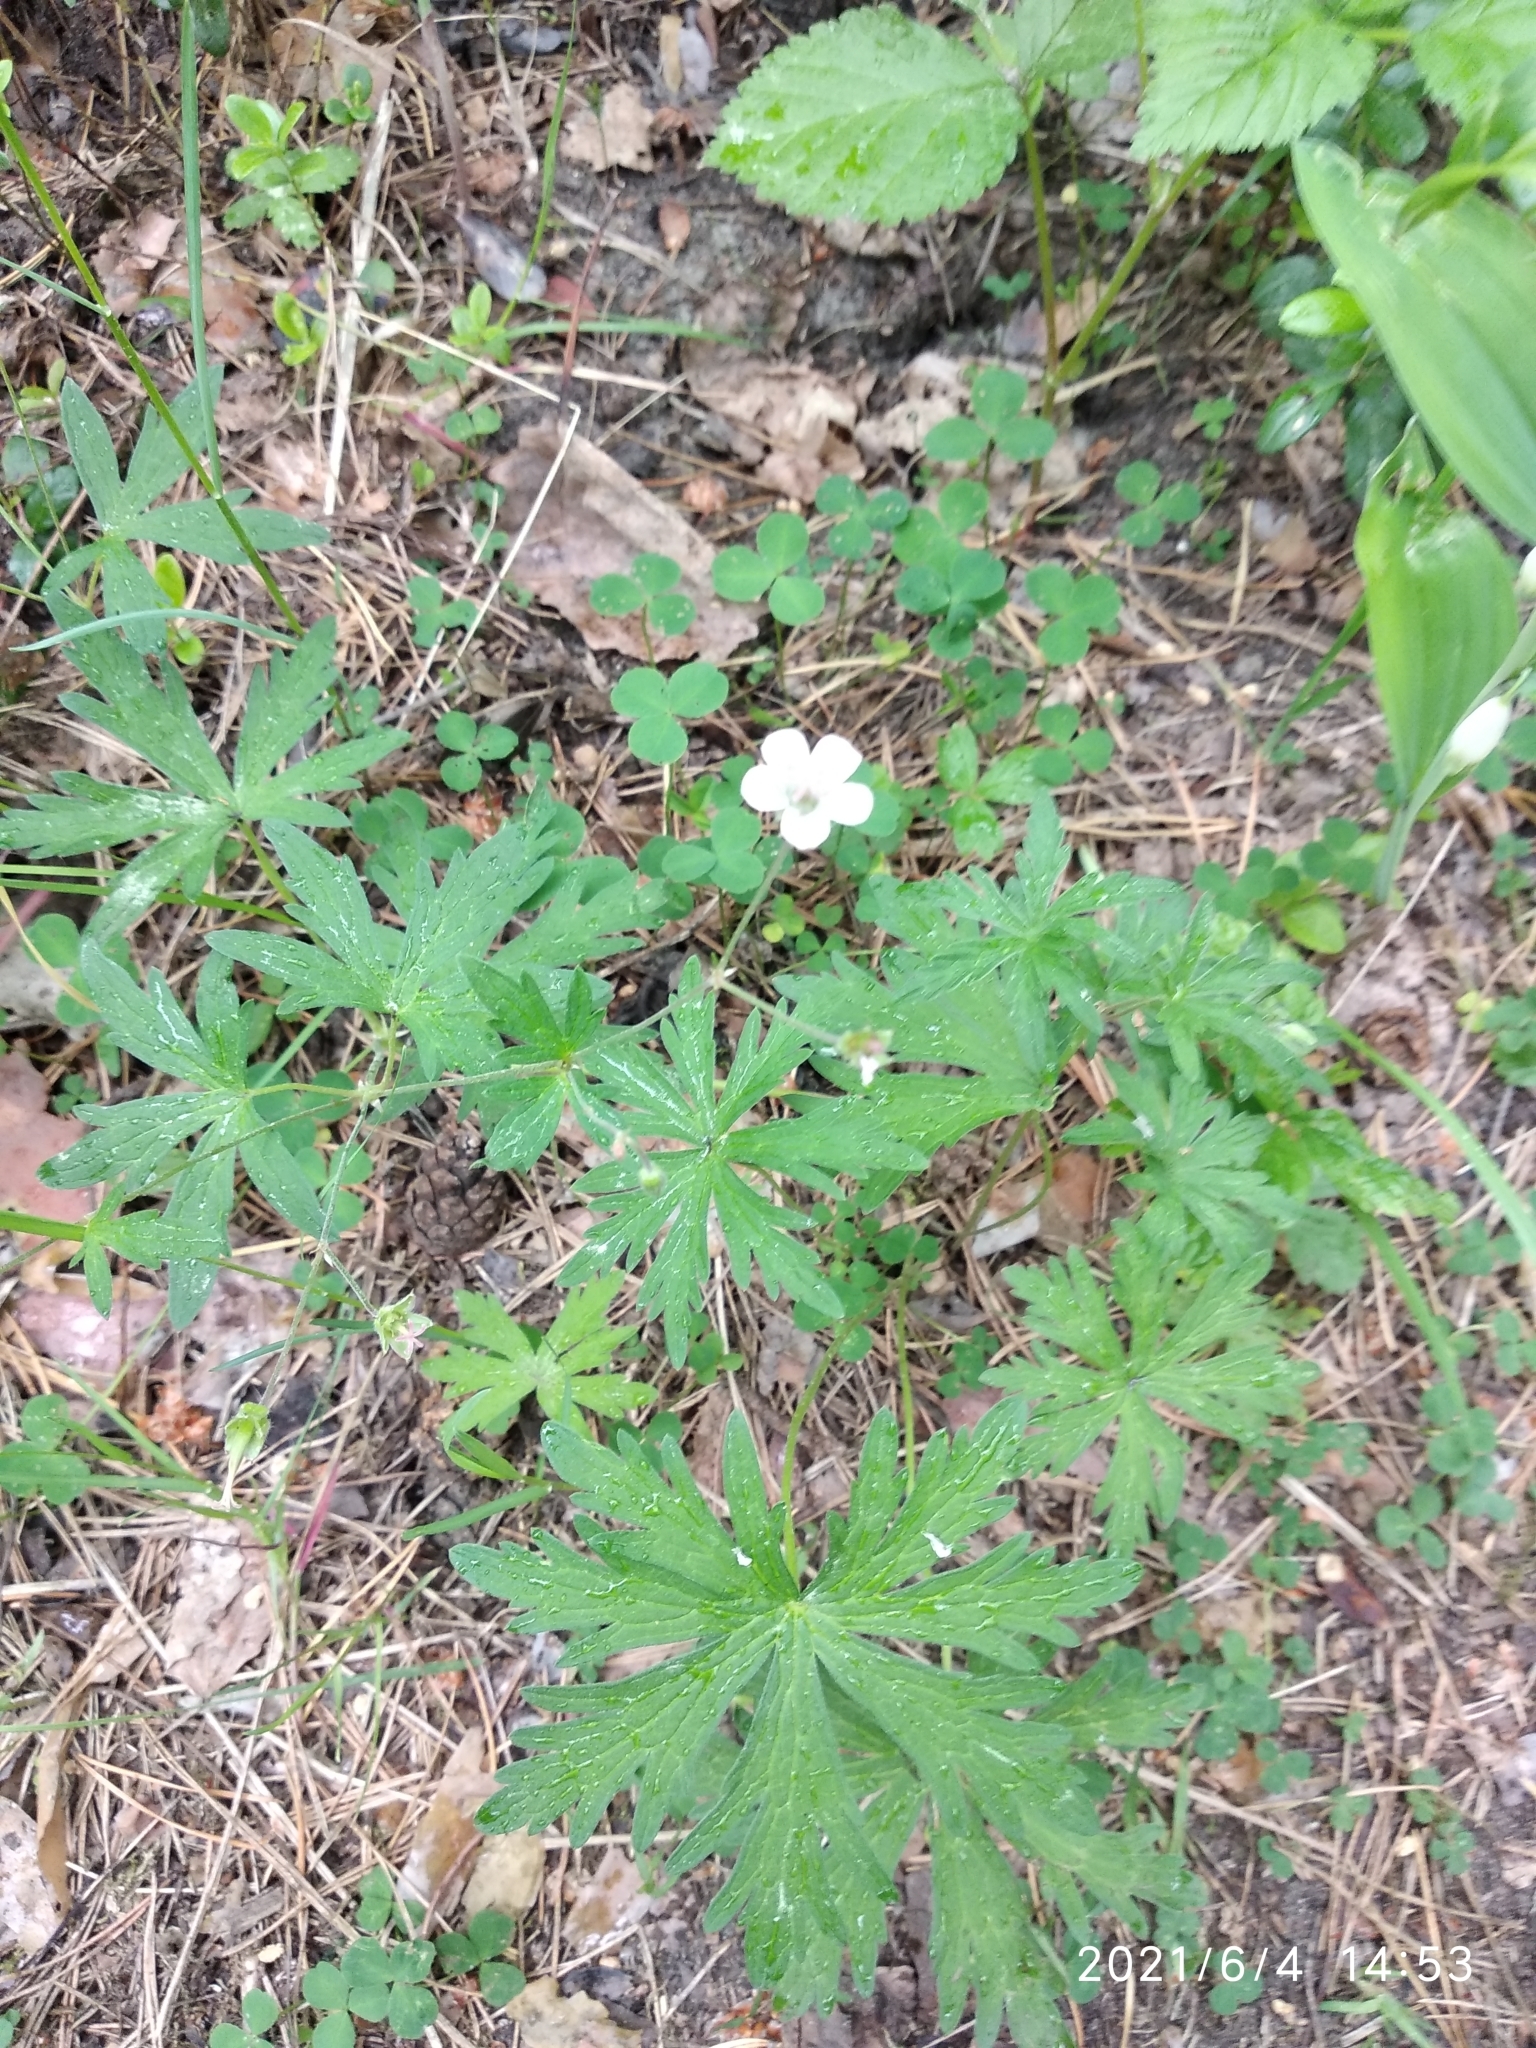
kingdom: Plantae
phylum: Tracheophyta
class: Magnoliopsida
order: Geraniales
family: Geraniaceae
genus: Geranium
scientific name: Geranium sibiricum
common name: Siberian crane's-bill
